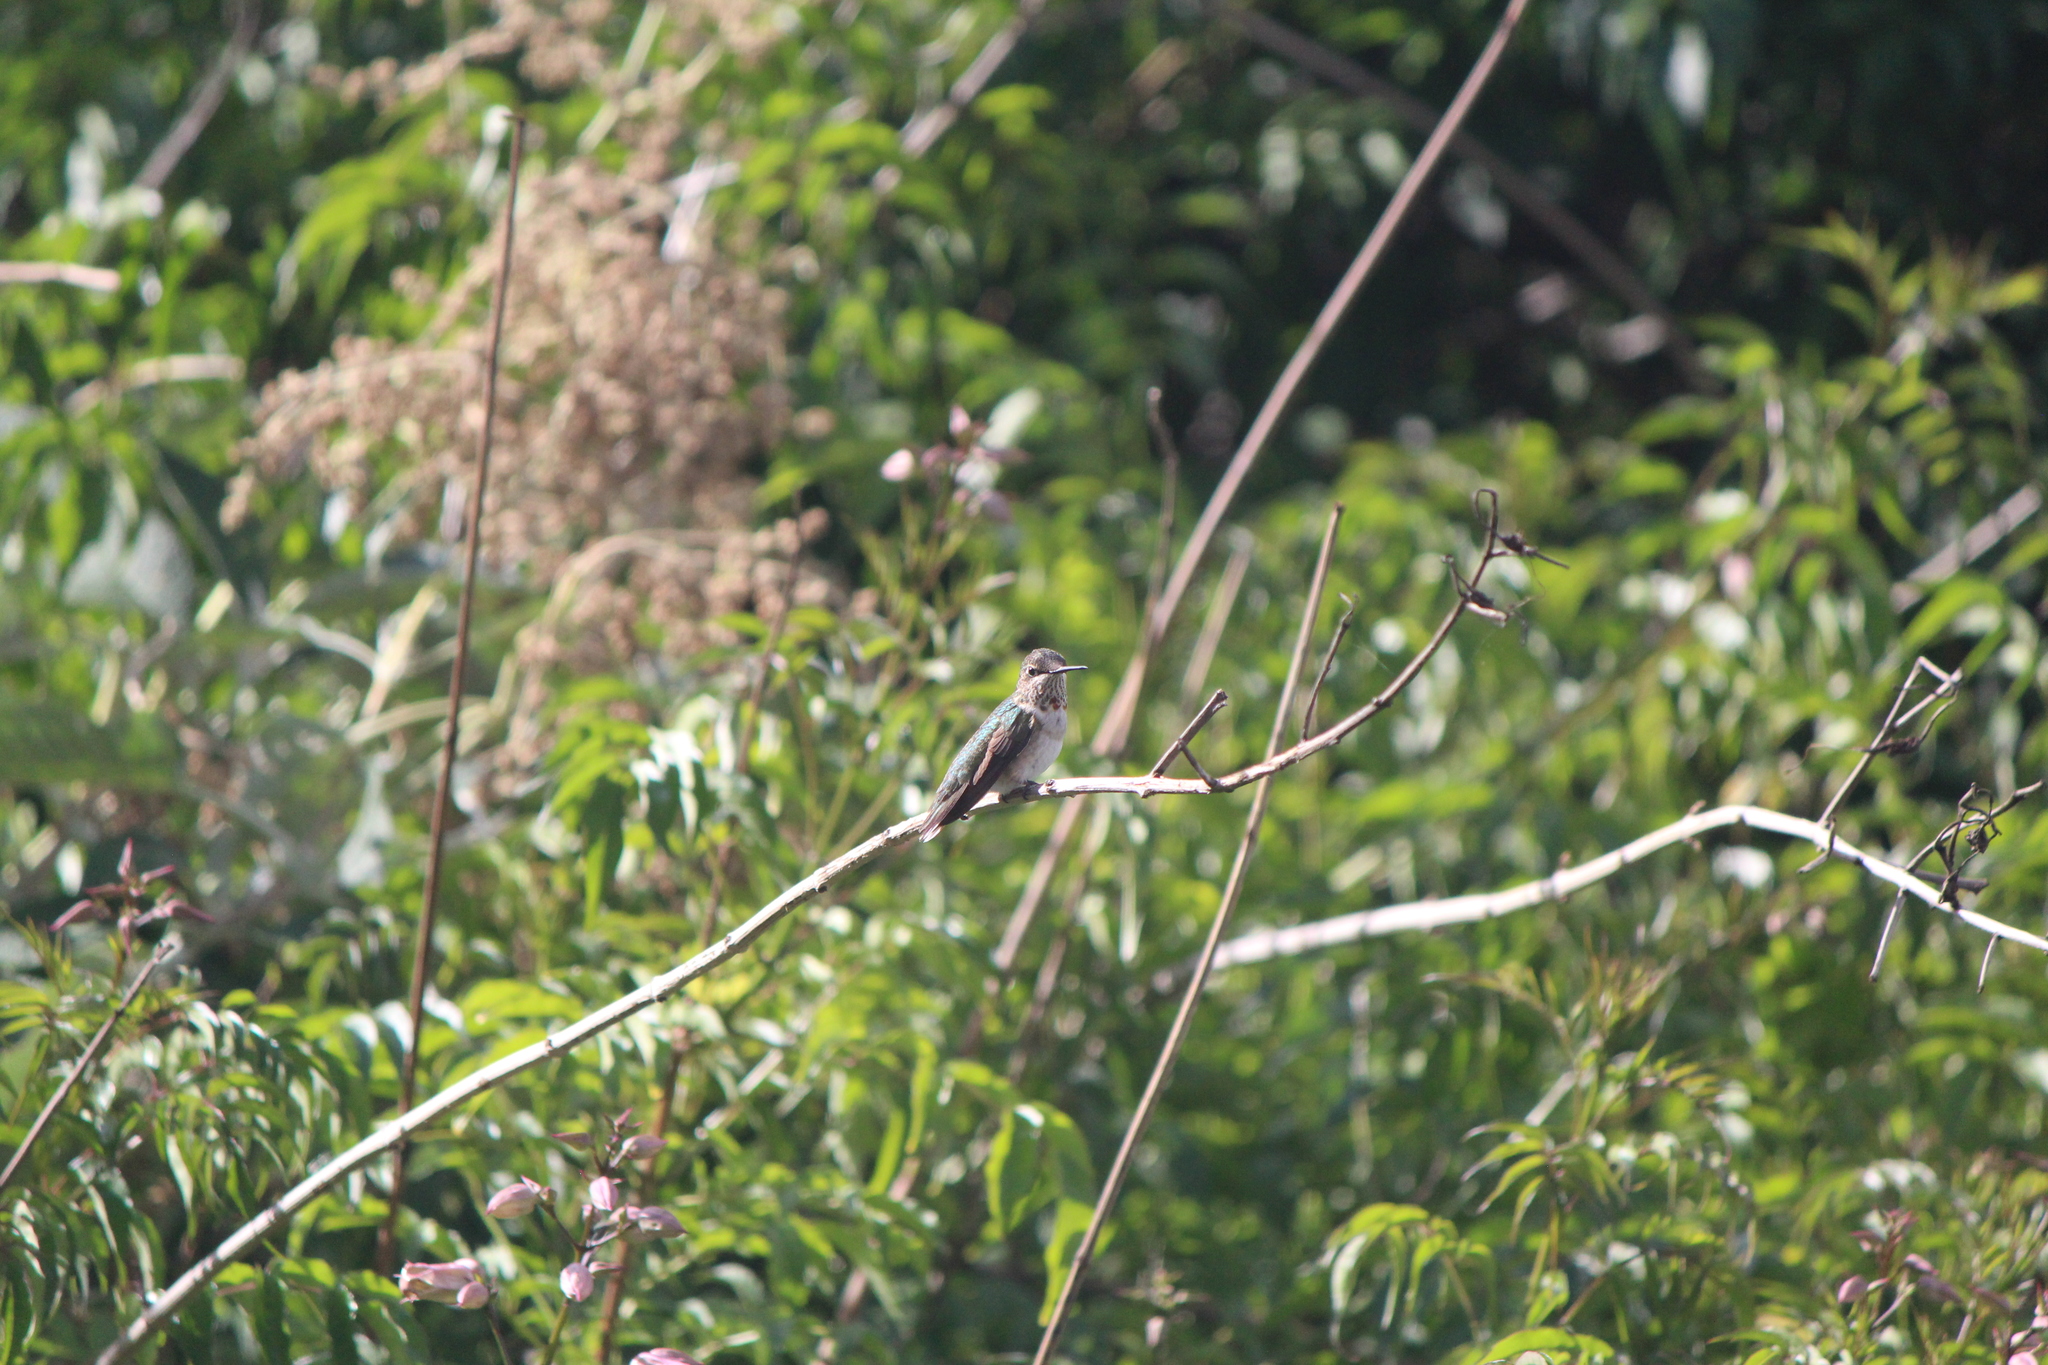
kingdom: Animalia
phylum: Chordata
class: Aves
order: Apodiformes
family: Trochilidae
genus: Archilochus
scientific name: Archilochus colubris
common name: Ruby-throated hummingbird
